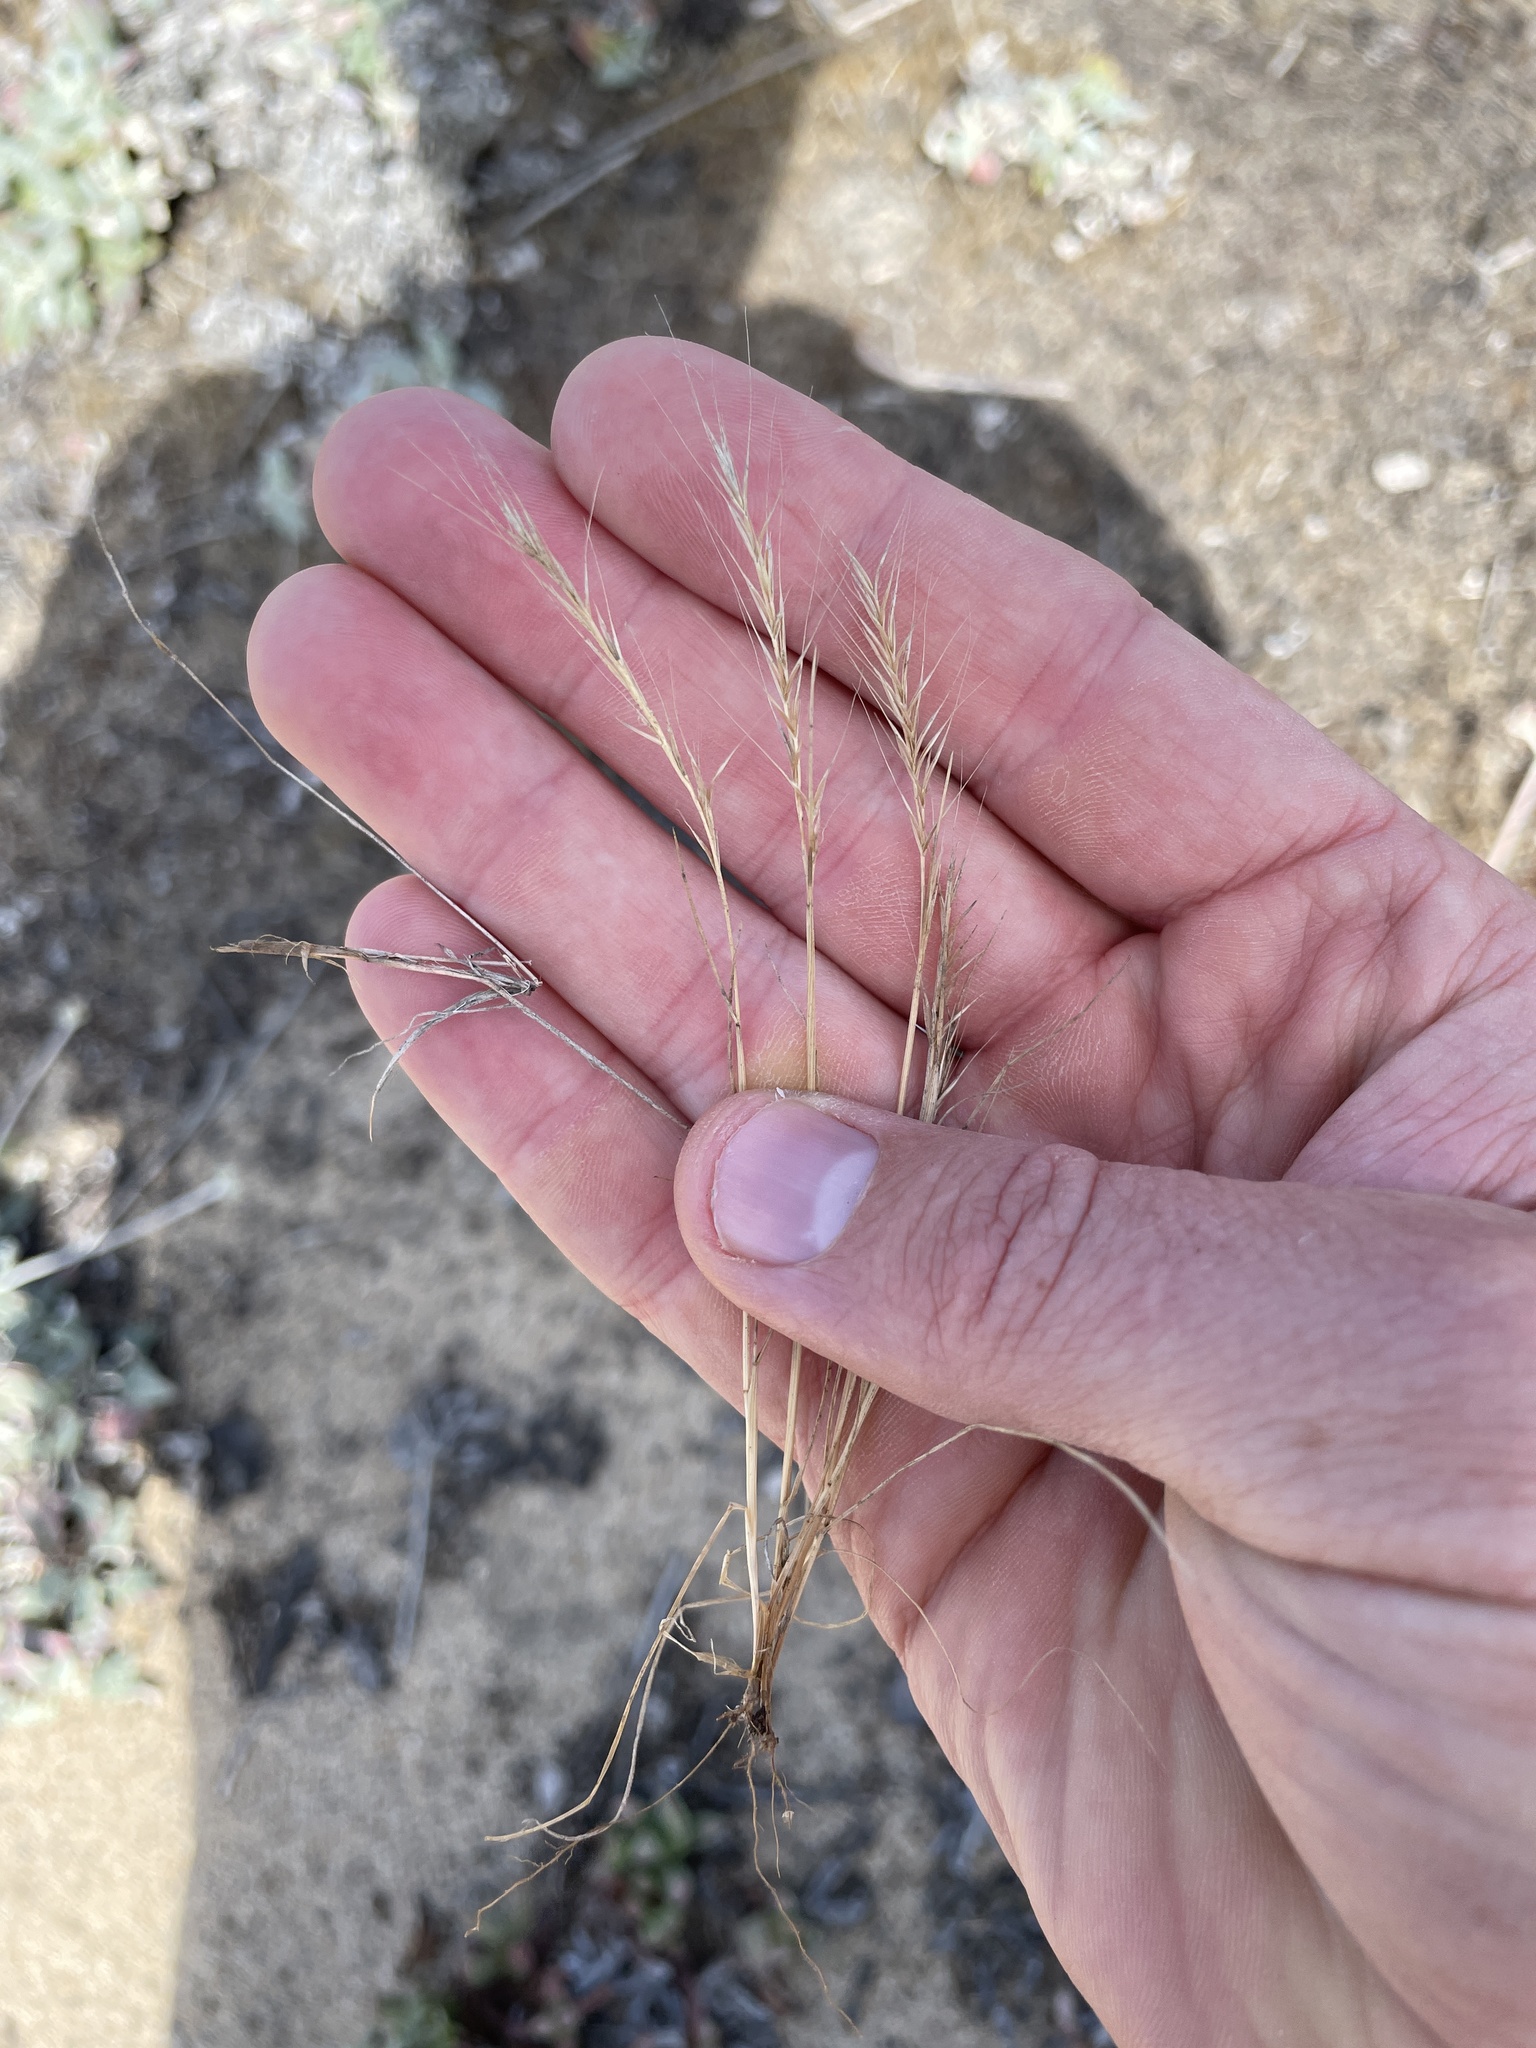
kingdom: Plantae
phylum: Tracheophyta
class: Liliopsida
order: Poales
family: Poaceae
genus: Festuca
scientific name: Festuca myuros
